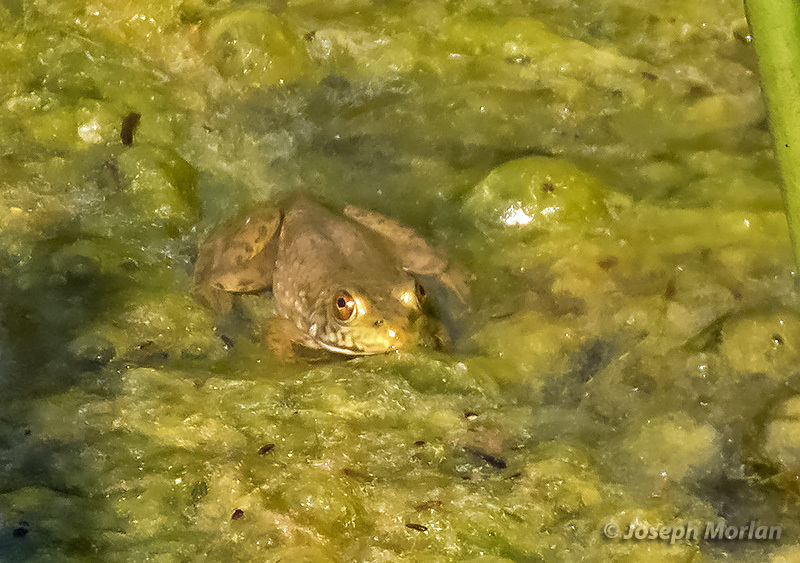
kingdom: Animalia
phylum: Chordata
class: Amphibia
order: Anura
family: Ranidae
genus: Lithobates
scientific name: Lithobates catesbeianus
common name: American bullfrog
